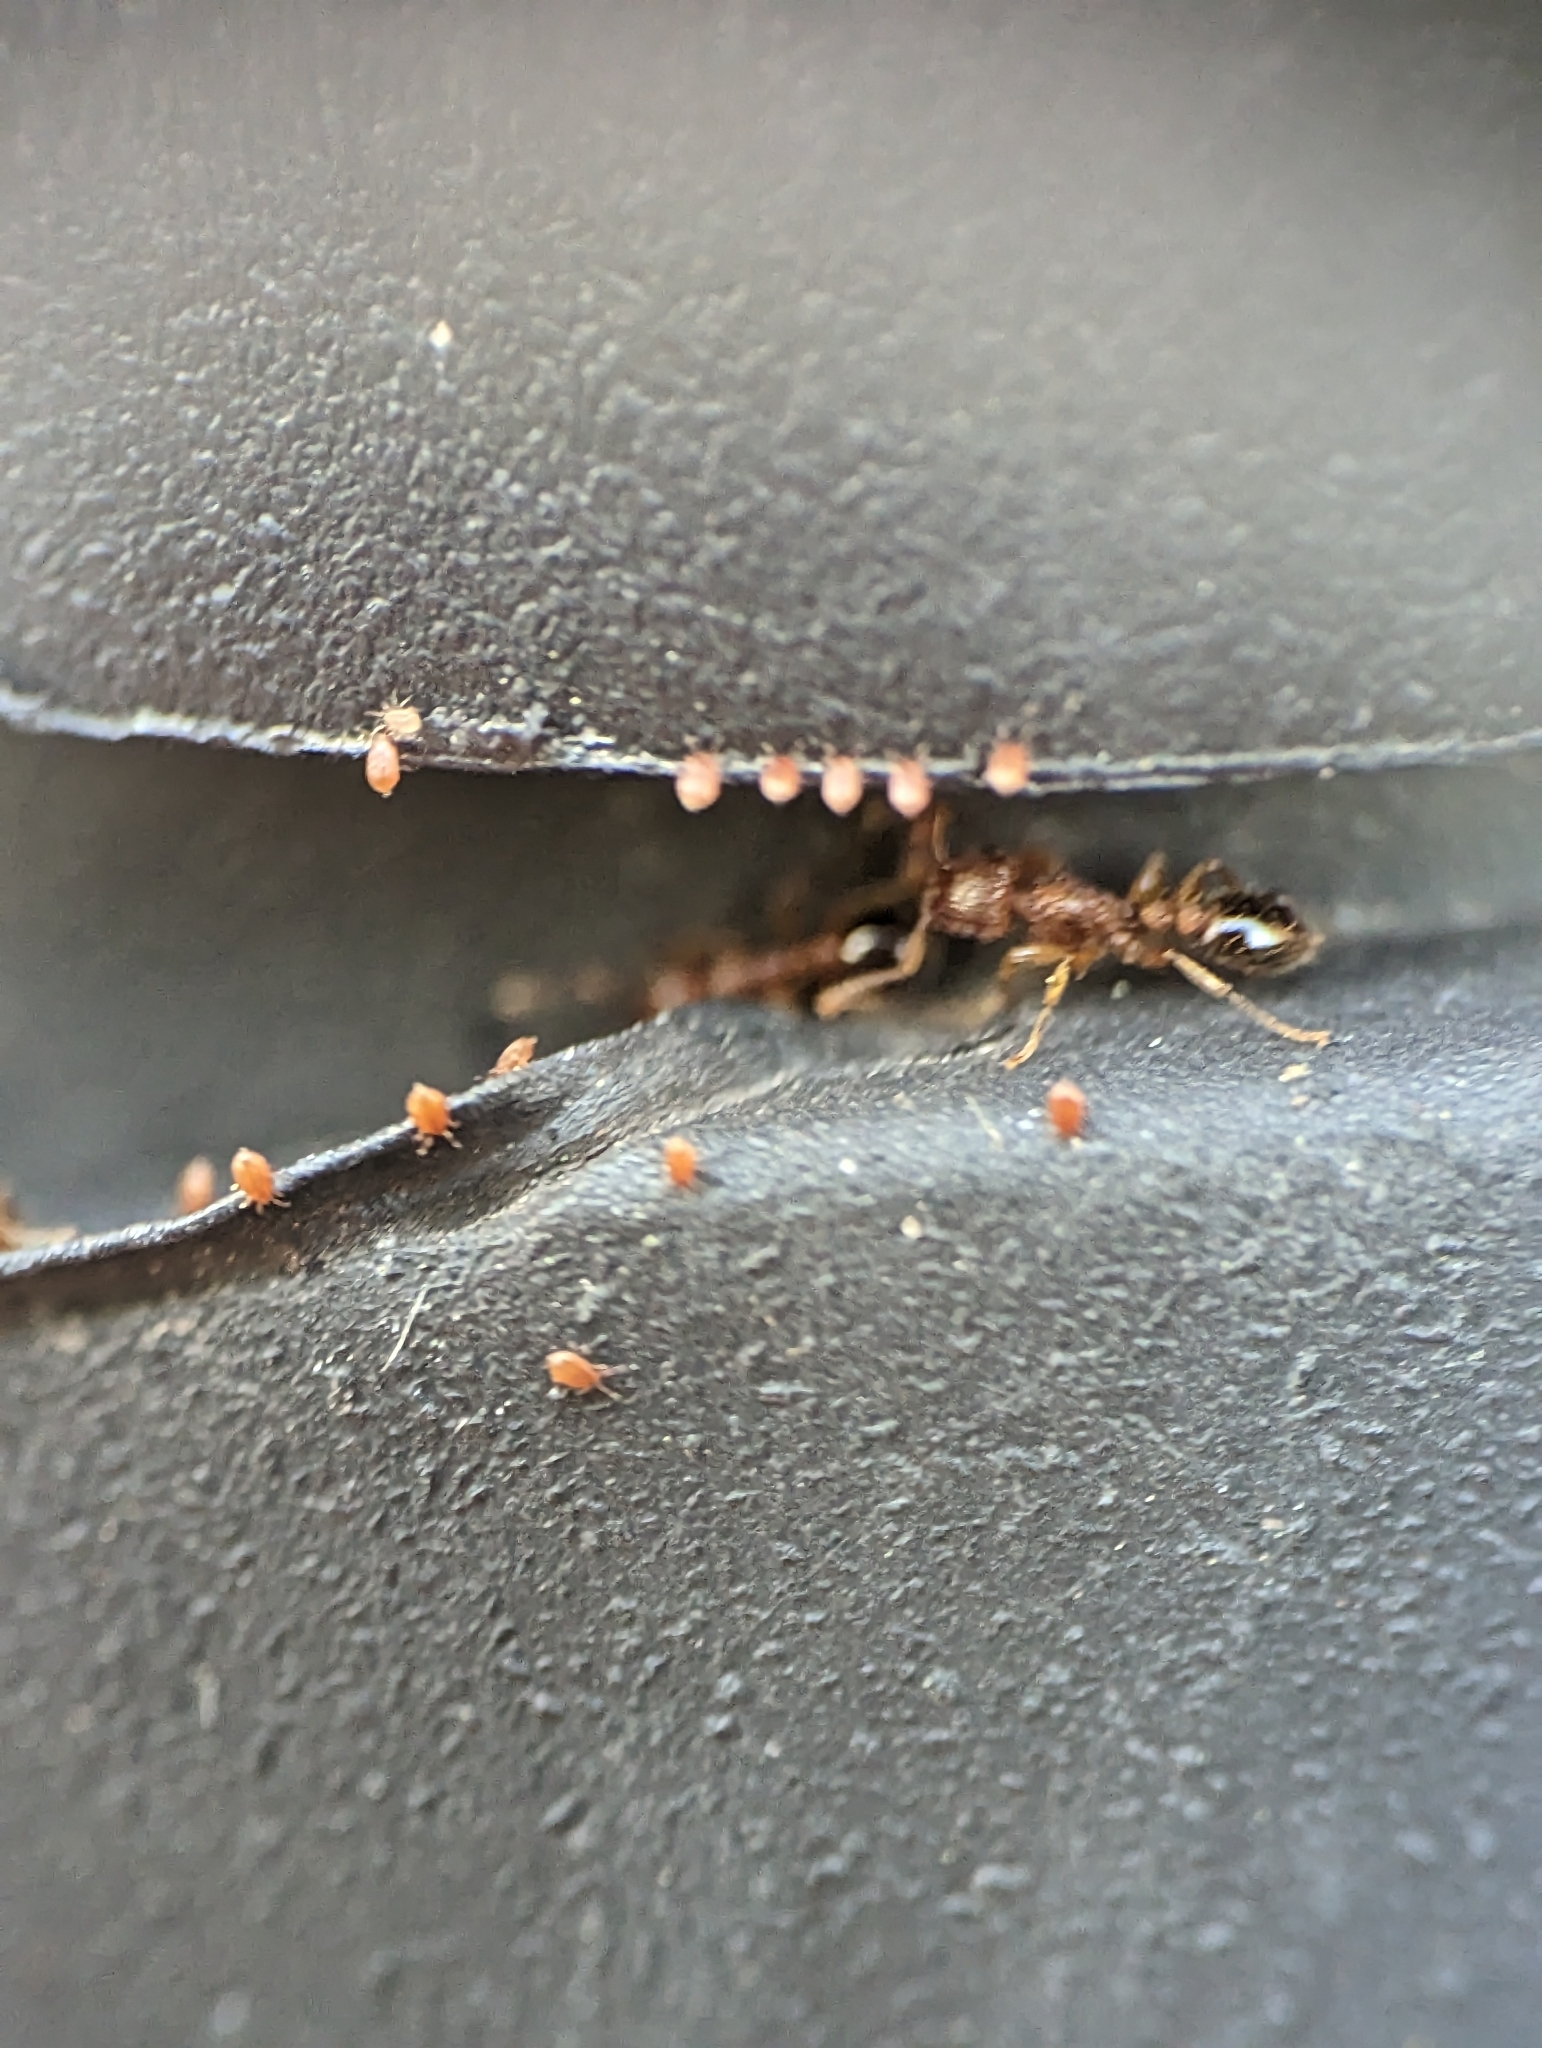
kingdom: Animalia
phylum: Arthropoda
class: Insecta
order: Hymenoptera
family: Formicidae
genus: Tetramorium
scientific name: Tetramorium bicarinatum
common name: Guinea ant
